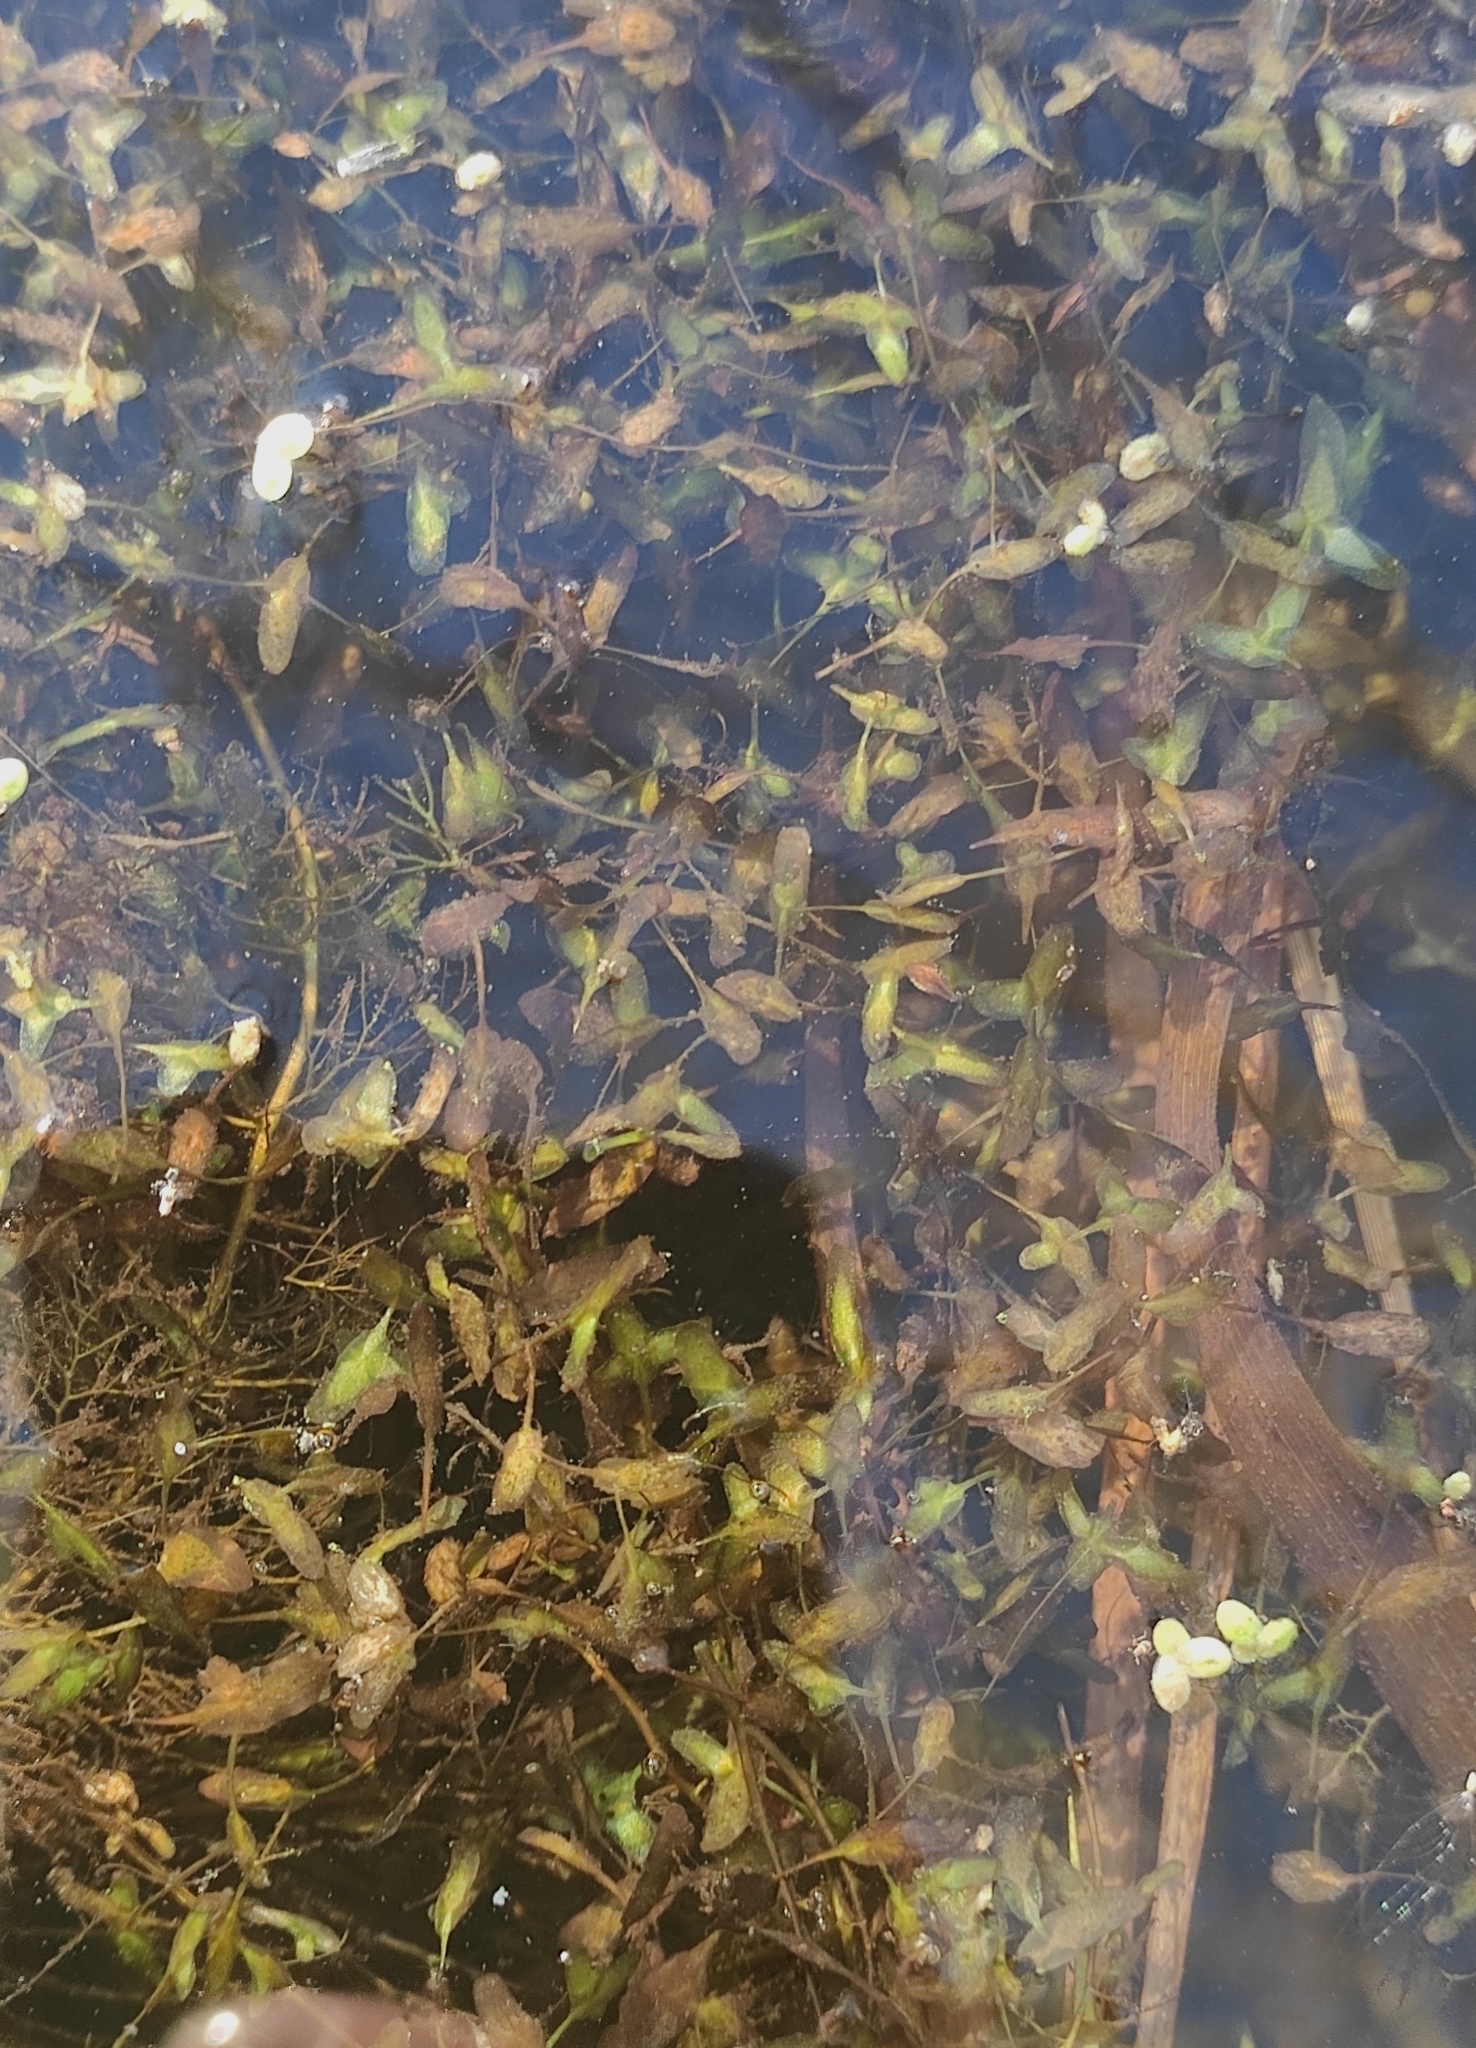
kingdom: Plantae
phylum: Tracheophyta
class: Liliopsida
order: Alismatales
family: Araceae
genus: Lemna
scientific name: Lemna trisulca
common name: Ivy-leaved duckweed
